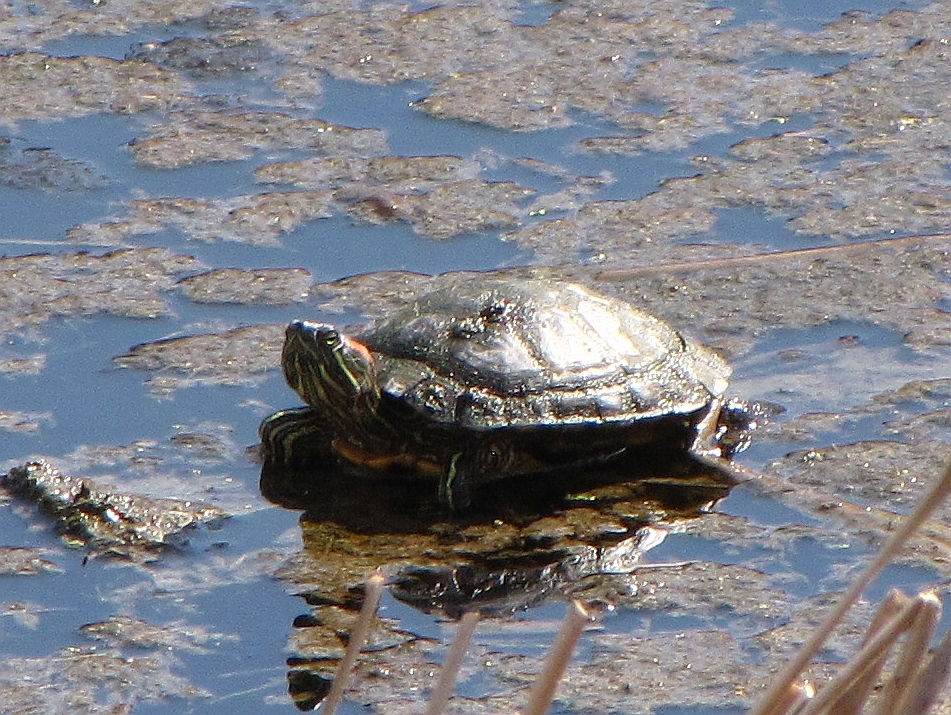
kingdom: Animalia
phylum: Chordata
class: Testudines
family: Emydidae
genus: Trachemys
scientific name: Trachemys scripta
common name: Slider
